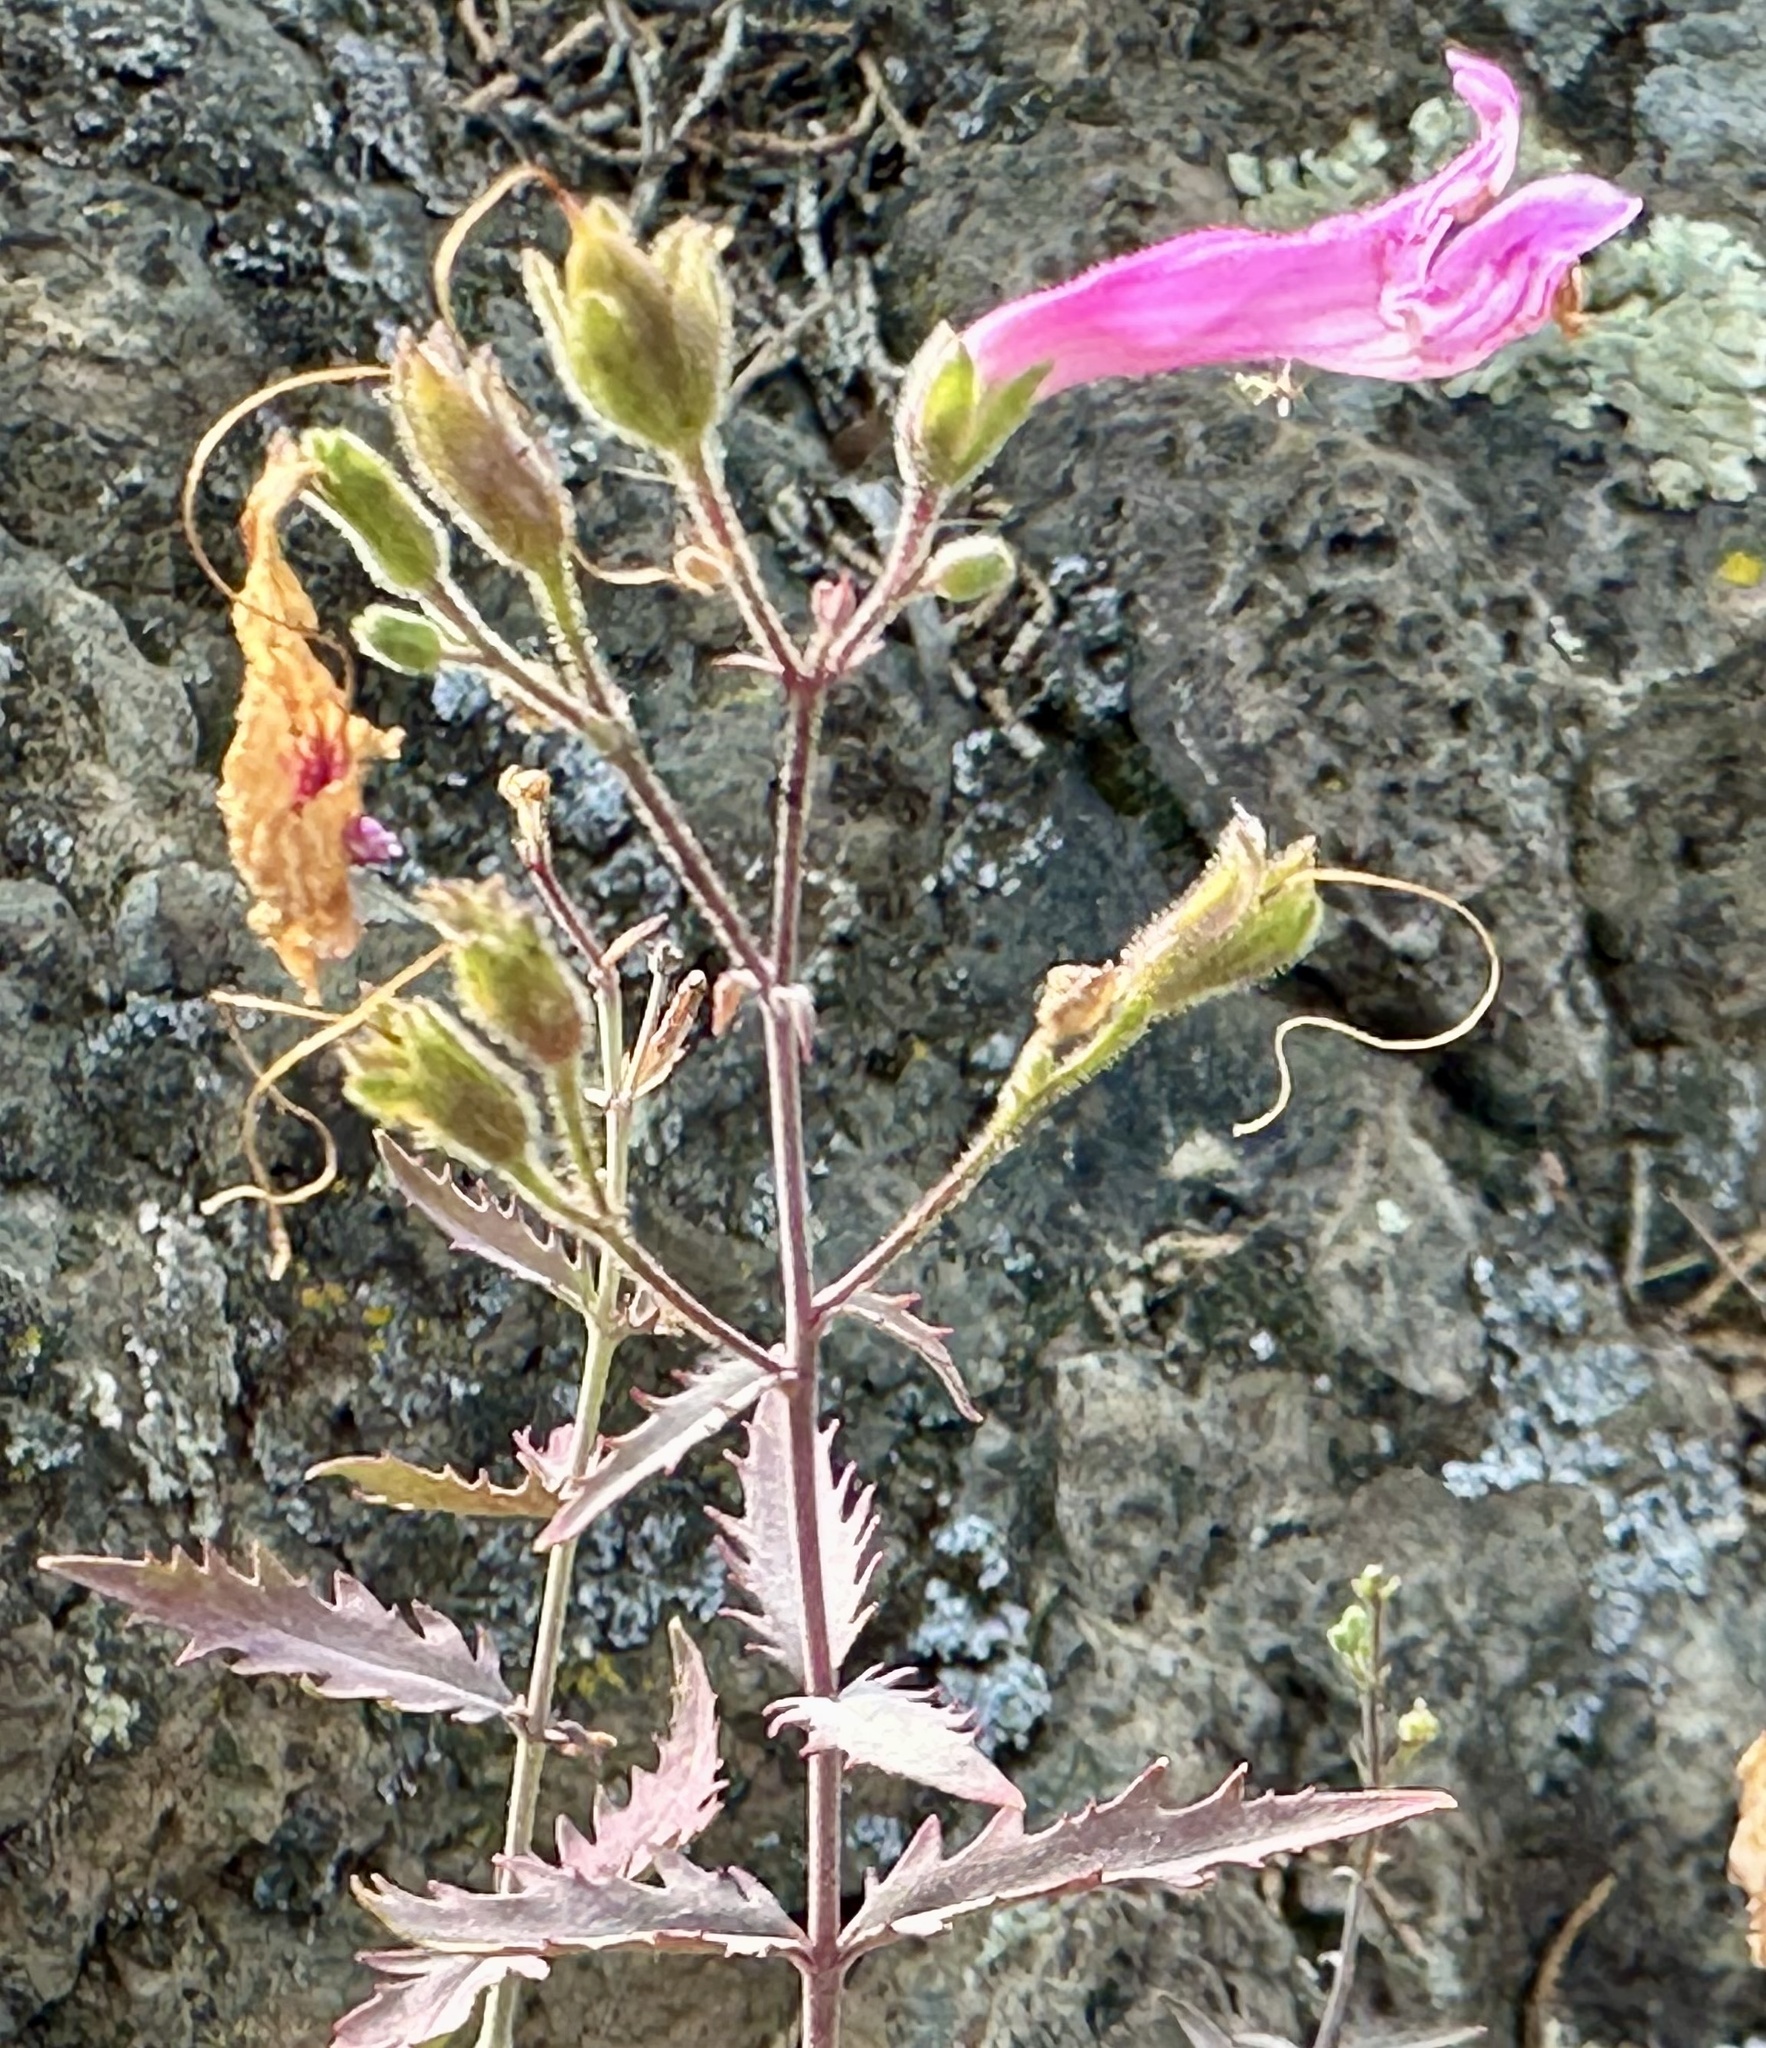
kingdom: Plantae
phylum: Tracheophyta
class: Magnoliopsida
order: Lamiales
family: Plantaginaceae
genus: Penstemon
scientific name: Penstemon richardsonii
